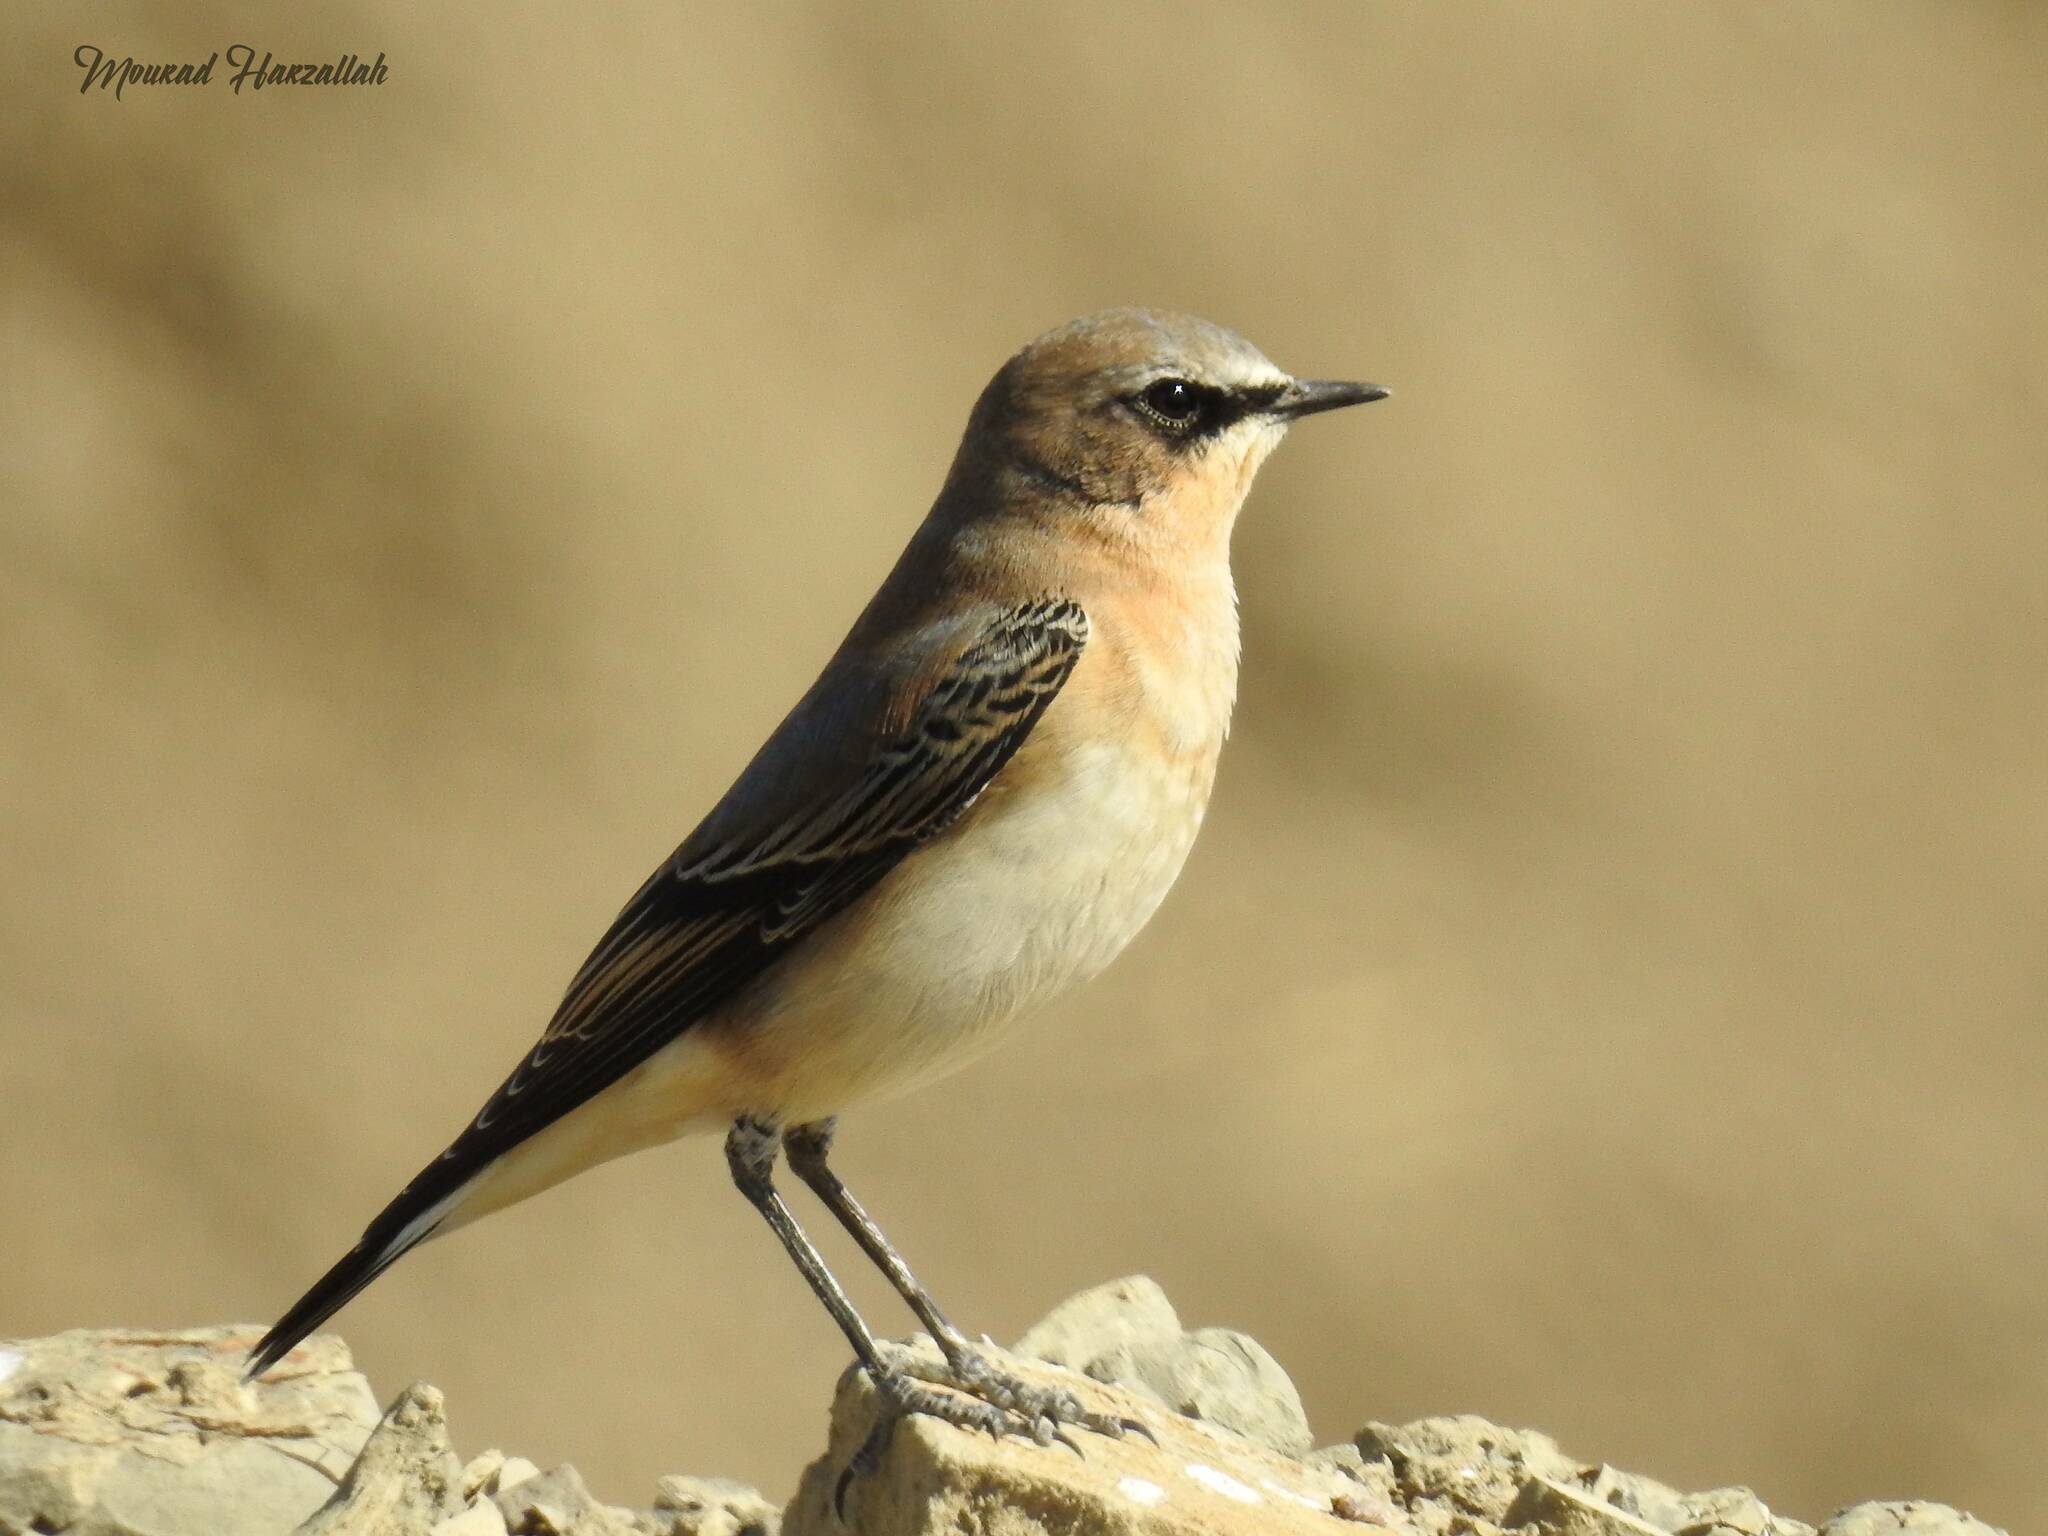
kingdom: Animalia
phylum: Chordata
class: Aves
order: Passeriformes
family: Muscicapidae
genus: Oenanthe
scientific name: Oenanthe oenanthe
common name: Northern wheatear
